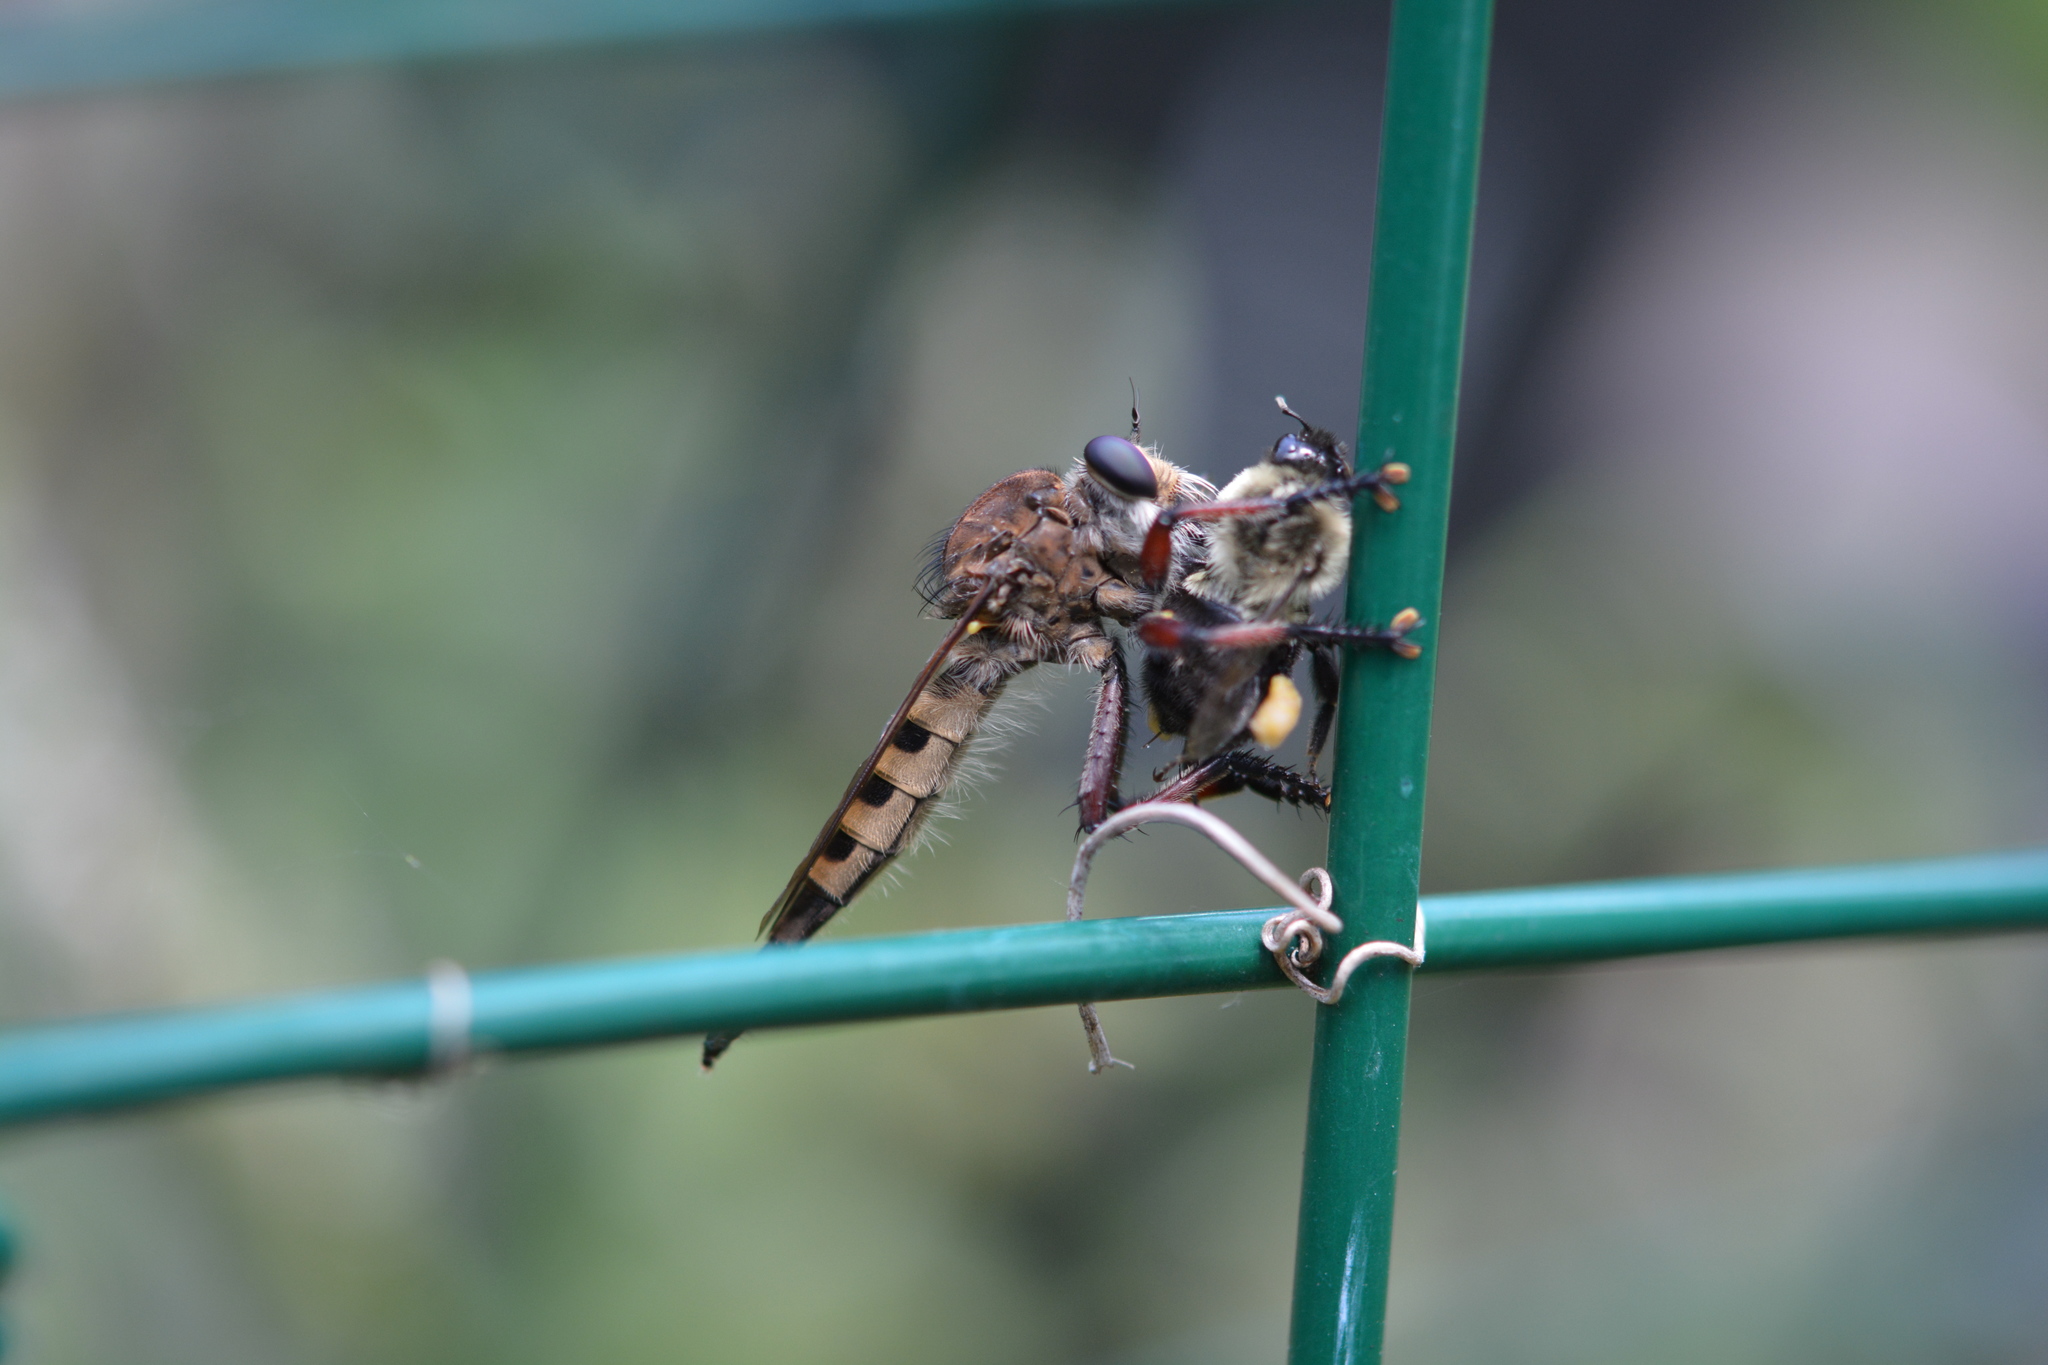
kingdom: Animalia
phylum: Arthropoda
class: Insecta
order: Diptera
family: Asilidae
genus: Promachus
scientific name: Promachus hinei
